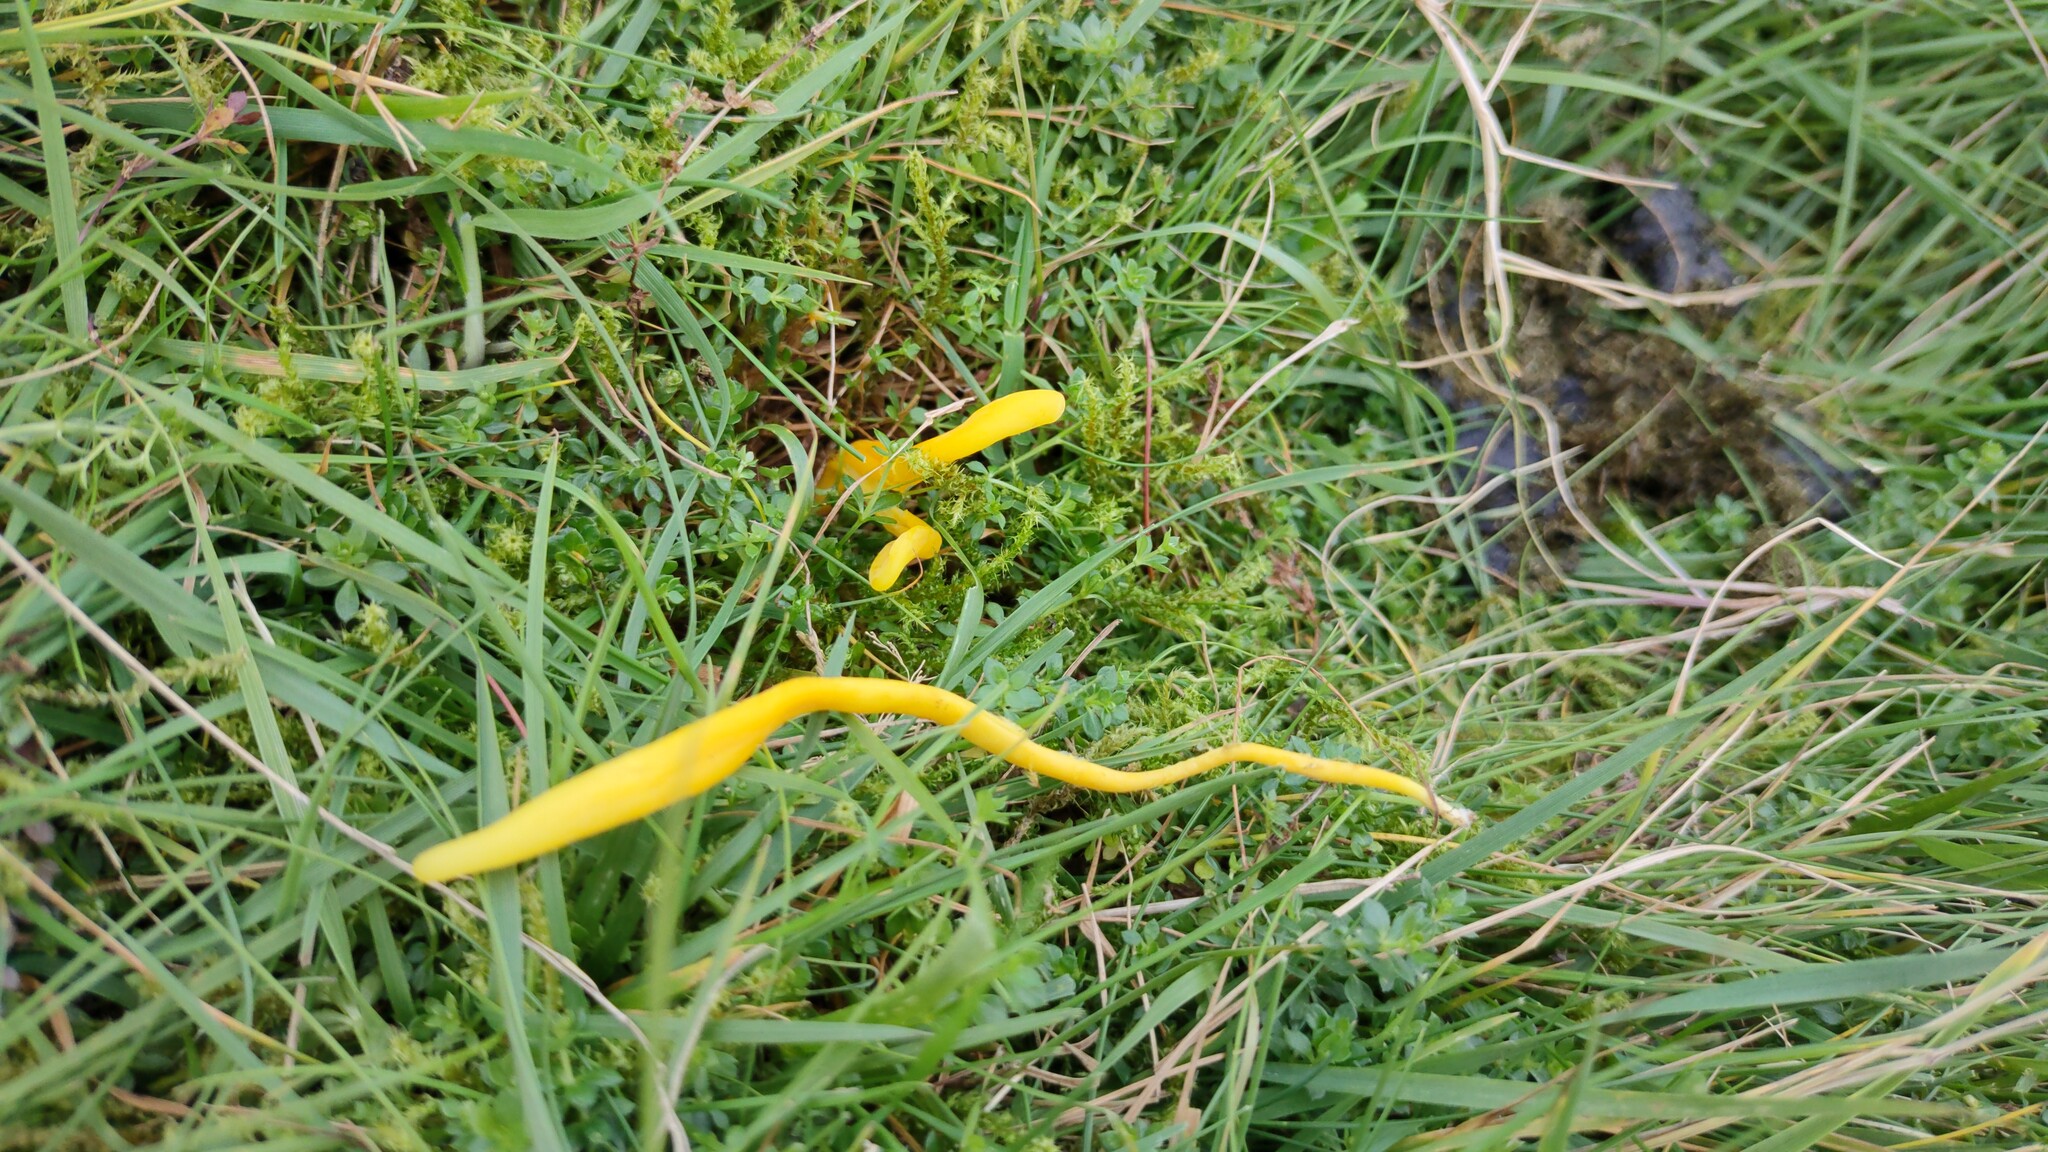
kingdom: Fungi
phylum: Basidiomycota
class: Agaricomycetes
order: Agaricales
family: Clavariaceae
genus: Clavulinopsis
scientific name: Clavulinopsis helvola
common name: Yellow club
